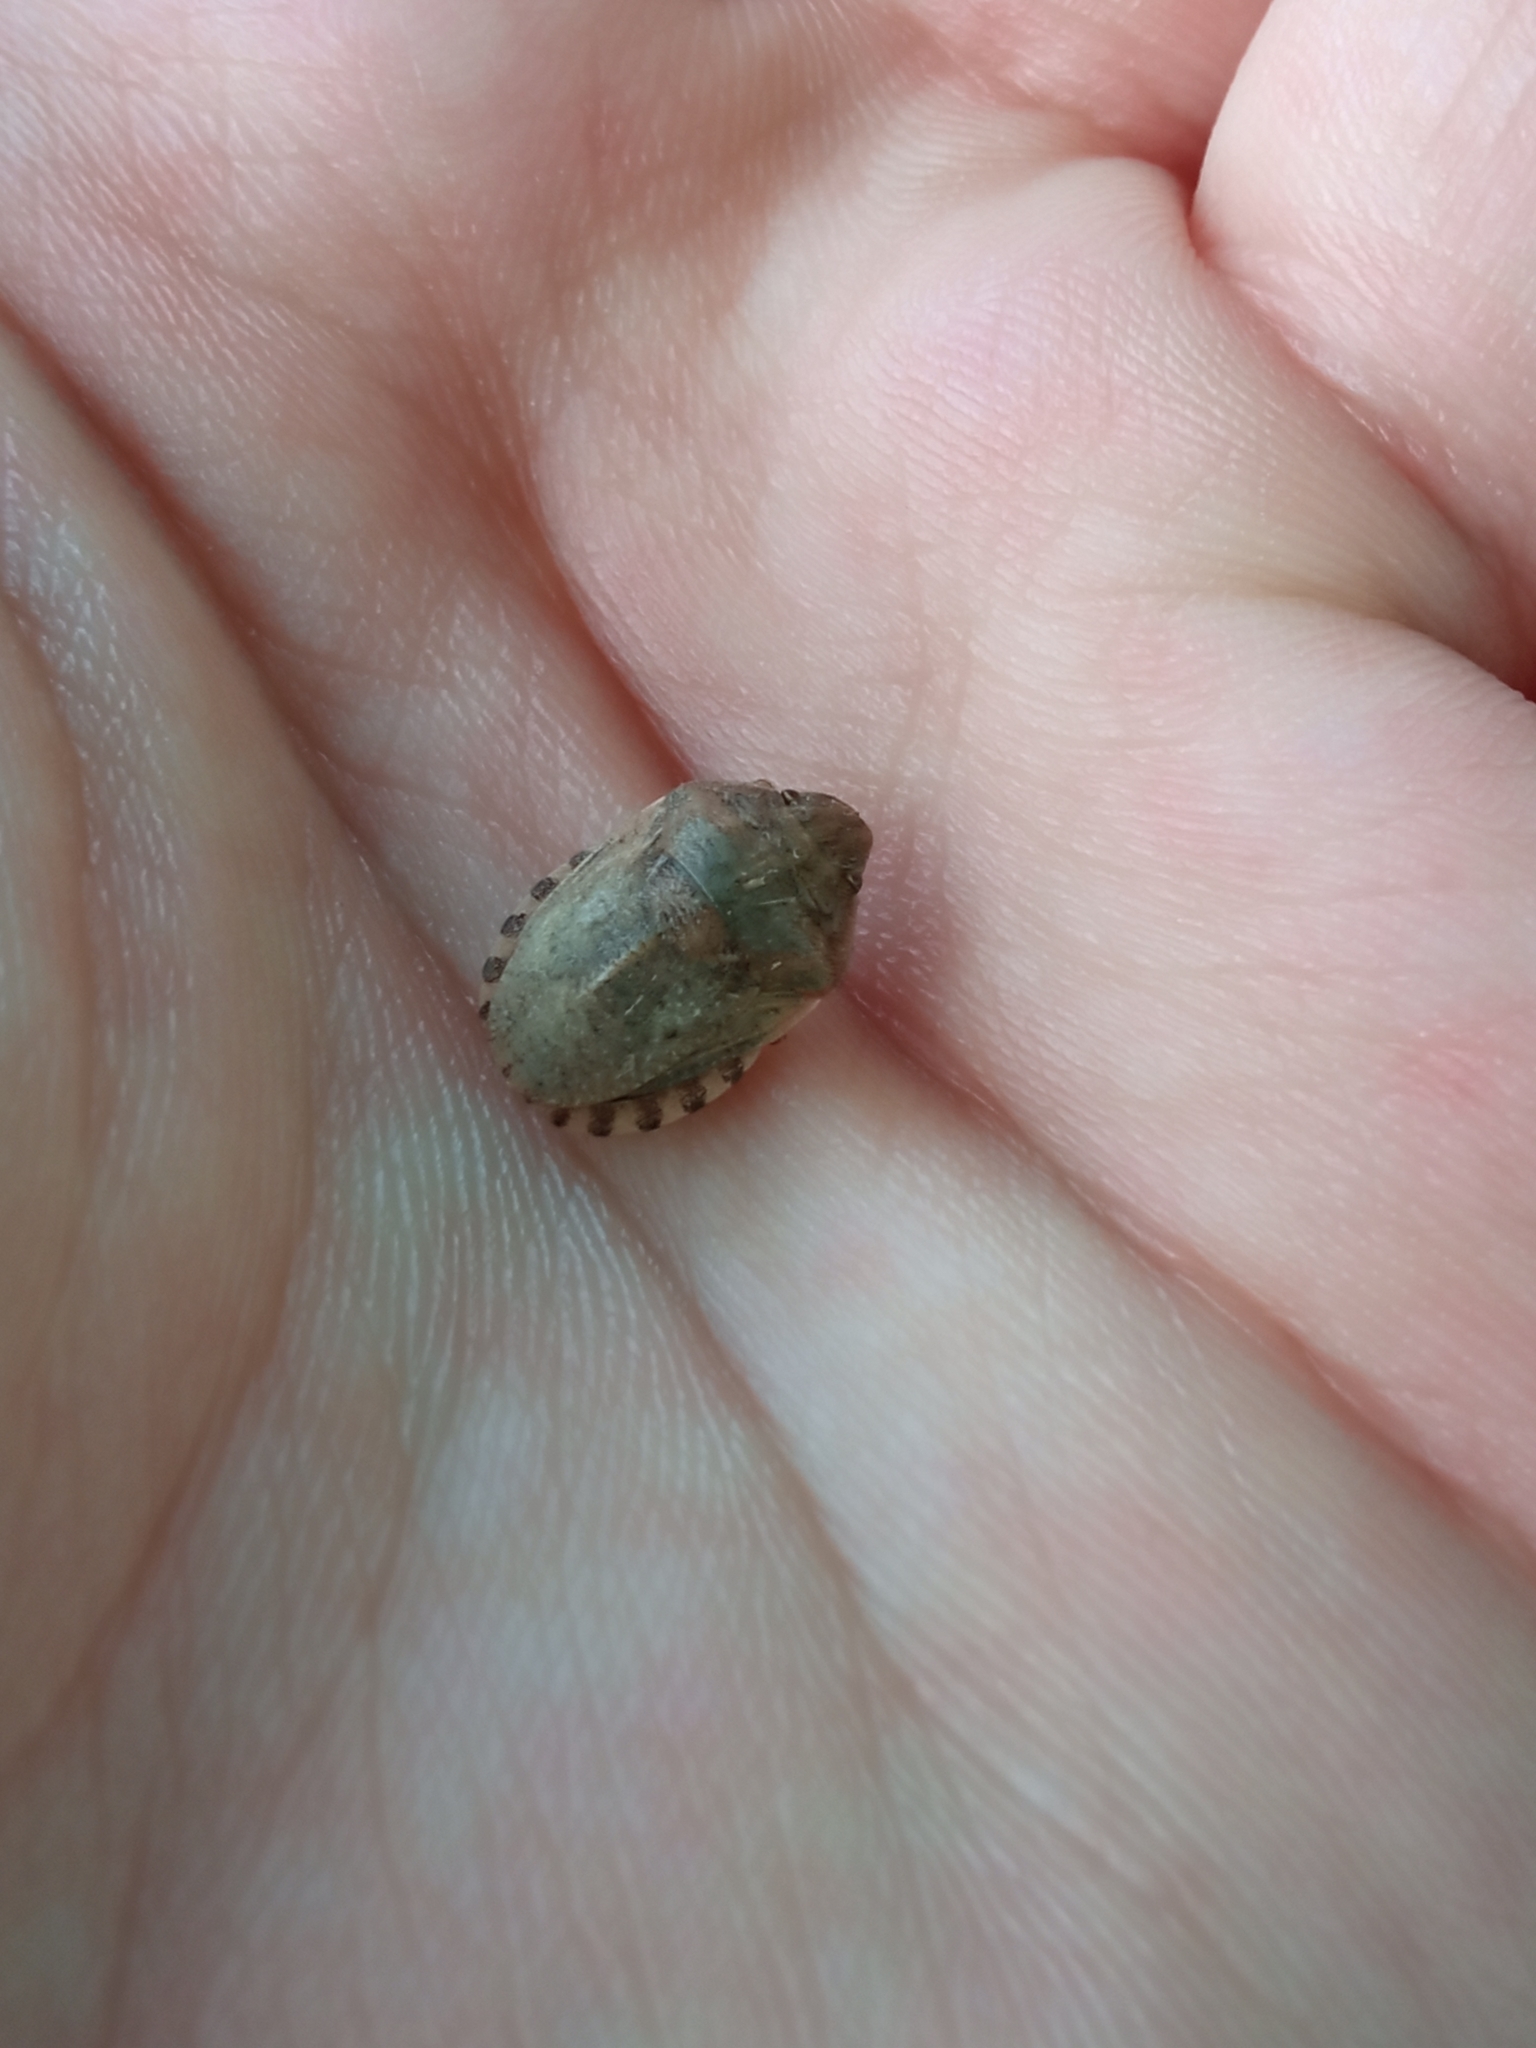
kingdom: Animalia
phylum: Arthropoda
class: Insecta
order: Hemiptera
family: Scutelleridae
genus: Eurygaster
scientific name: Eurygaster maura
